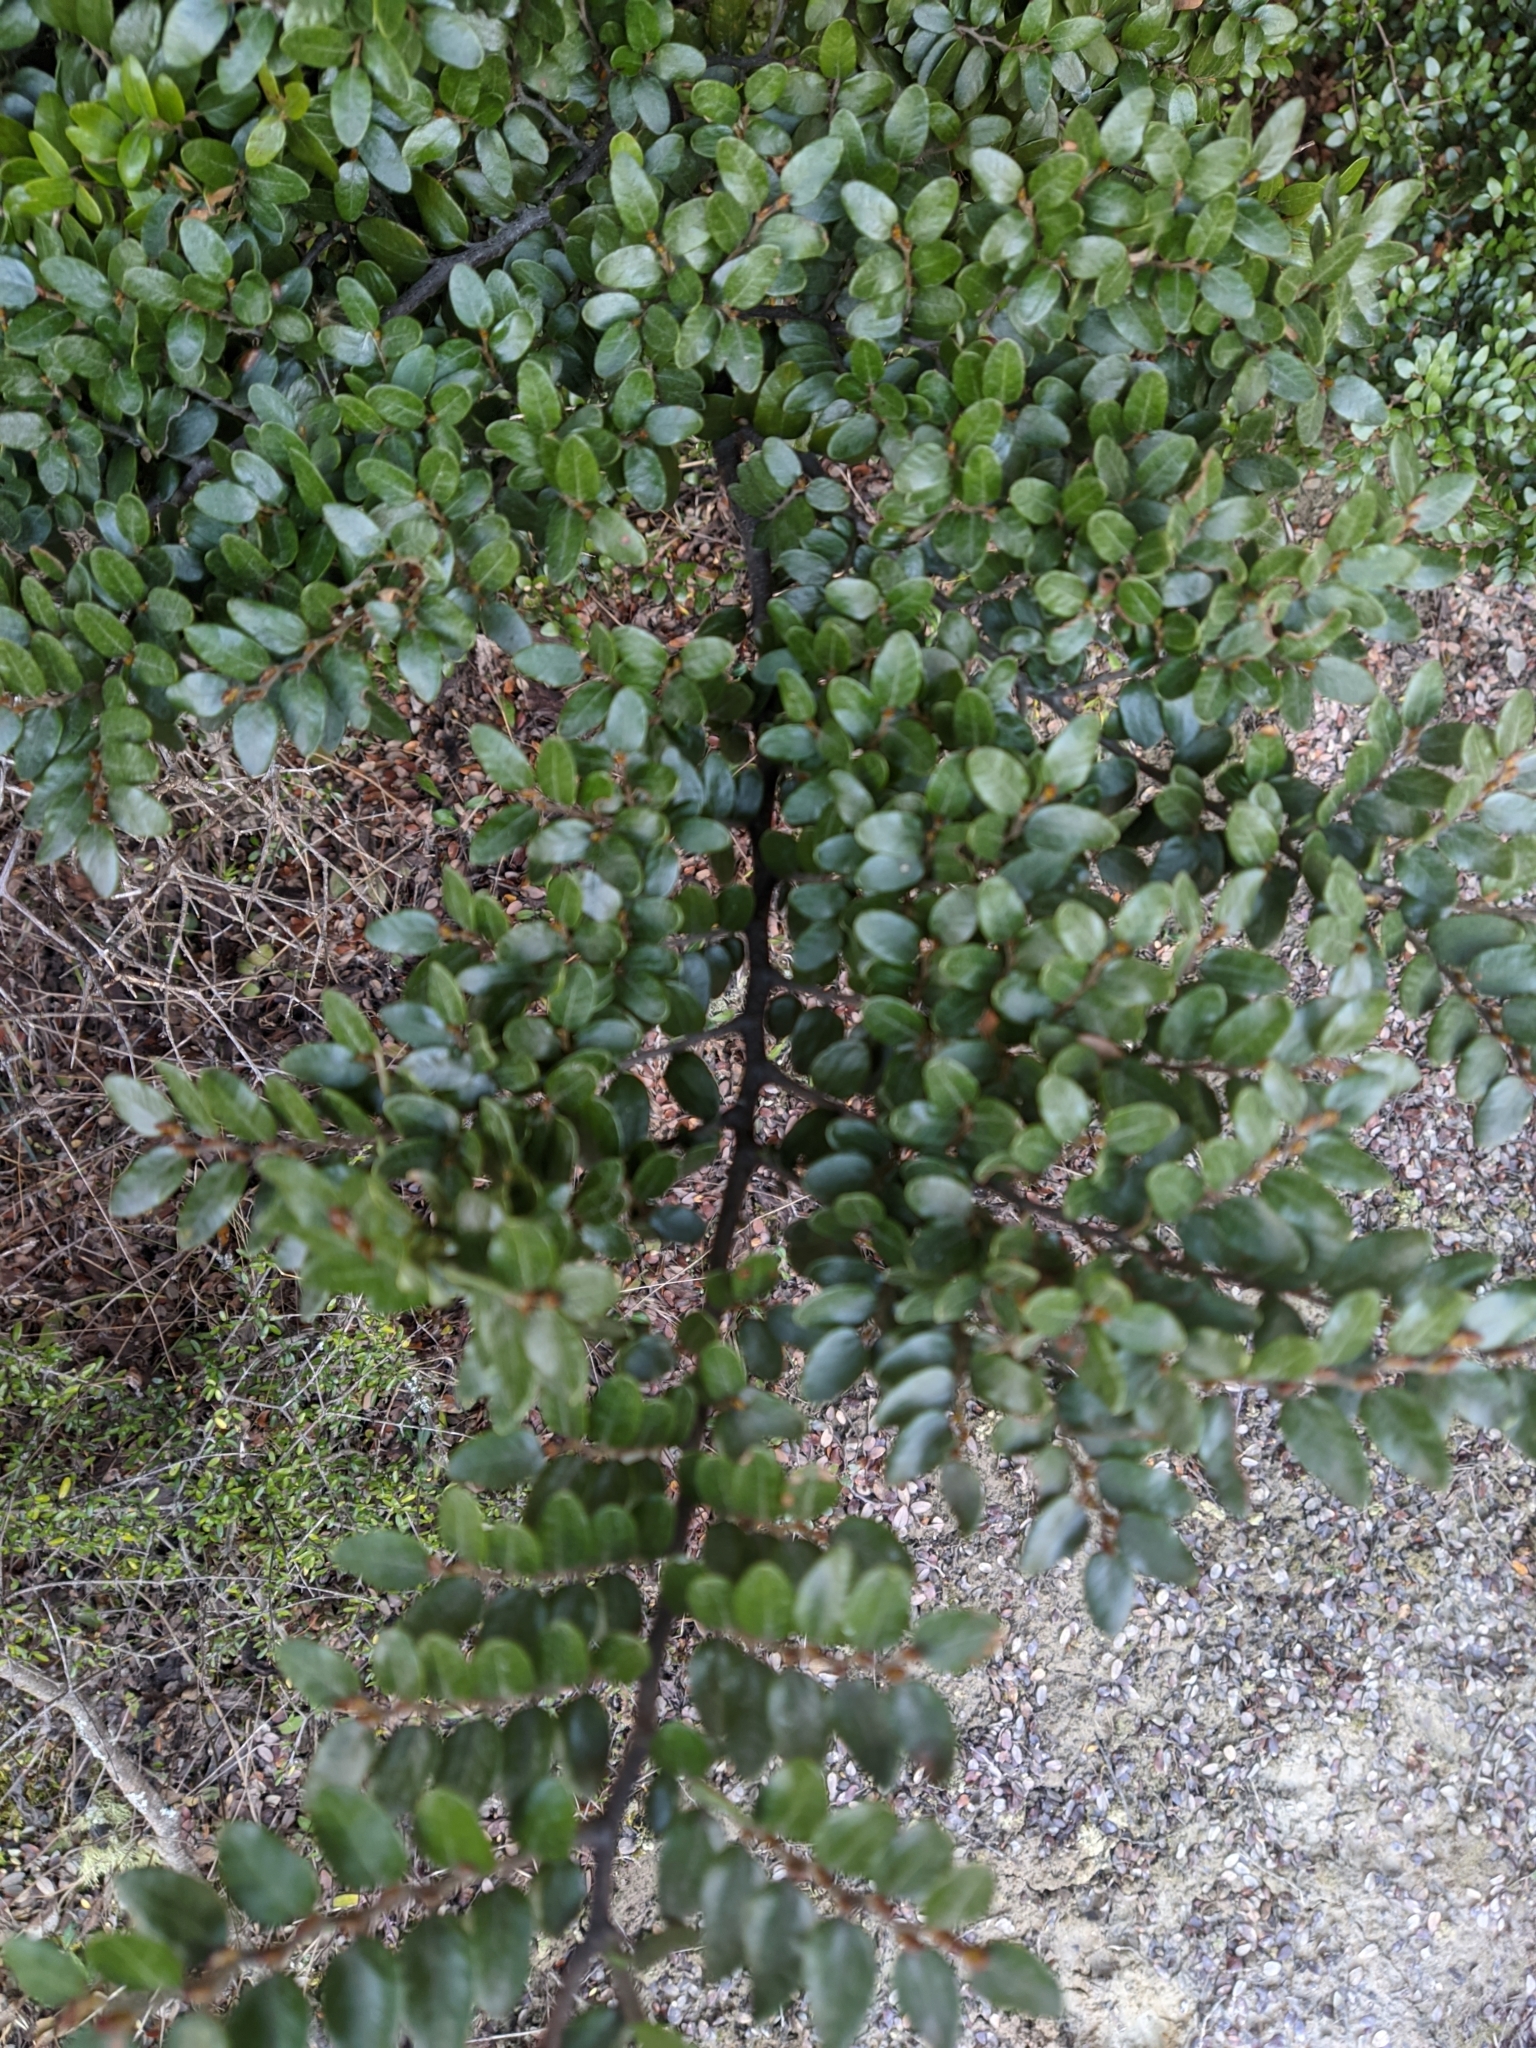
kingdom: Plantae
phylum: Tracheophyta
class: Magnoliopsida
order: Fagales
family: Nothofagaceae
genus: Nothofagus
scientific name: Nothofagus cliffortioides
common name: Mountain beech
